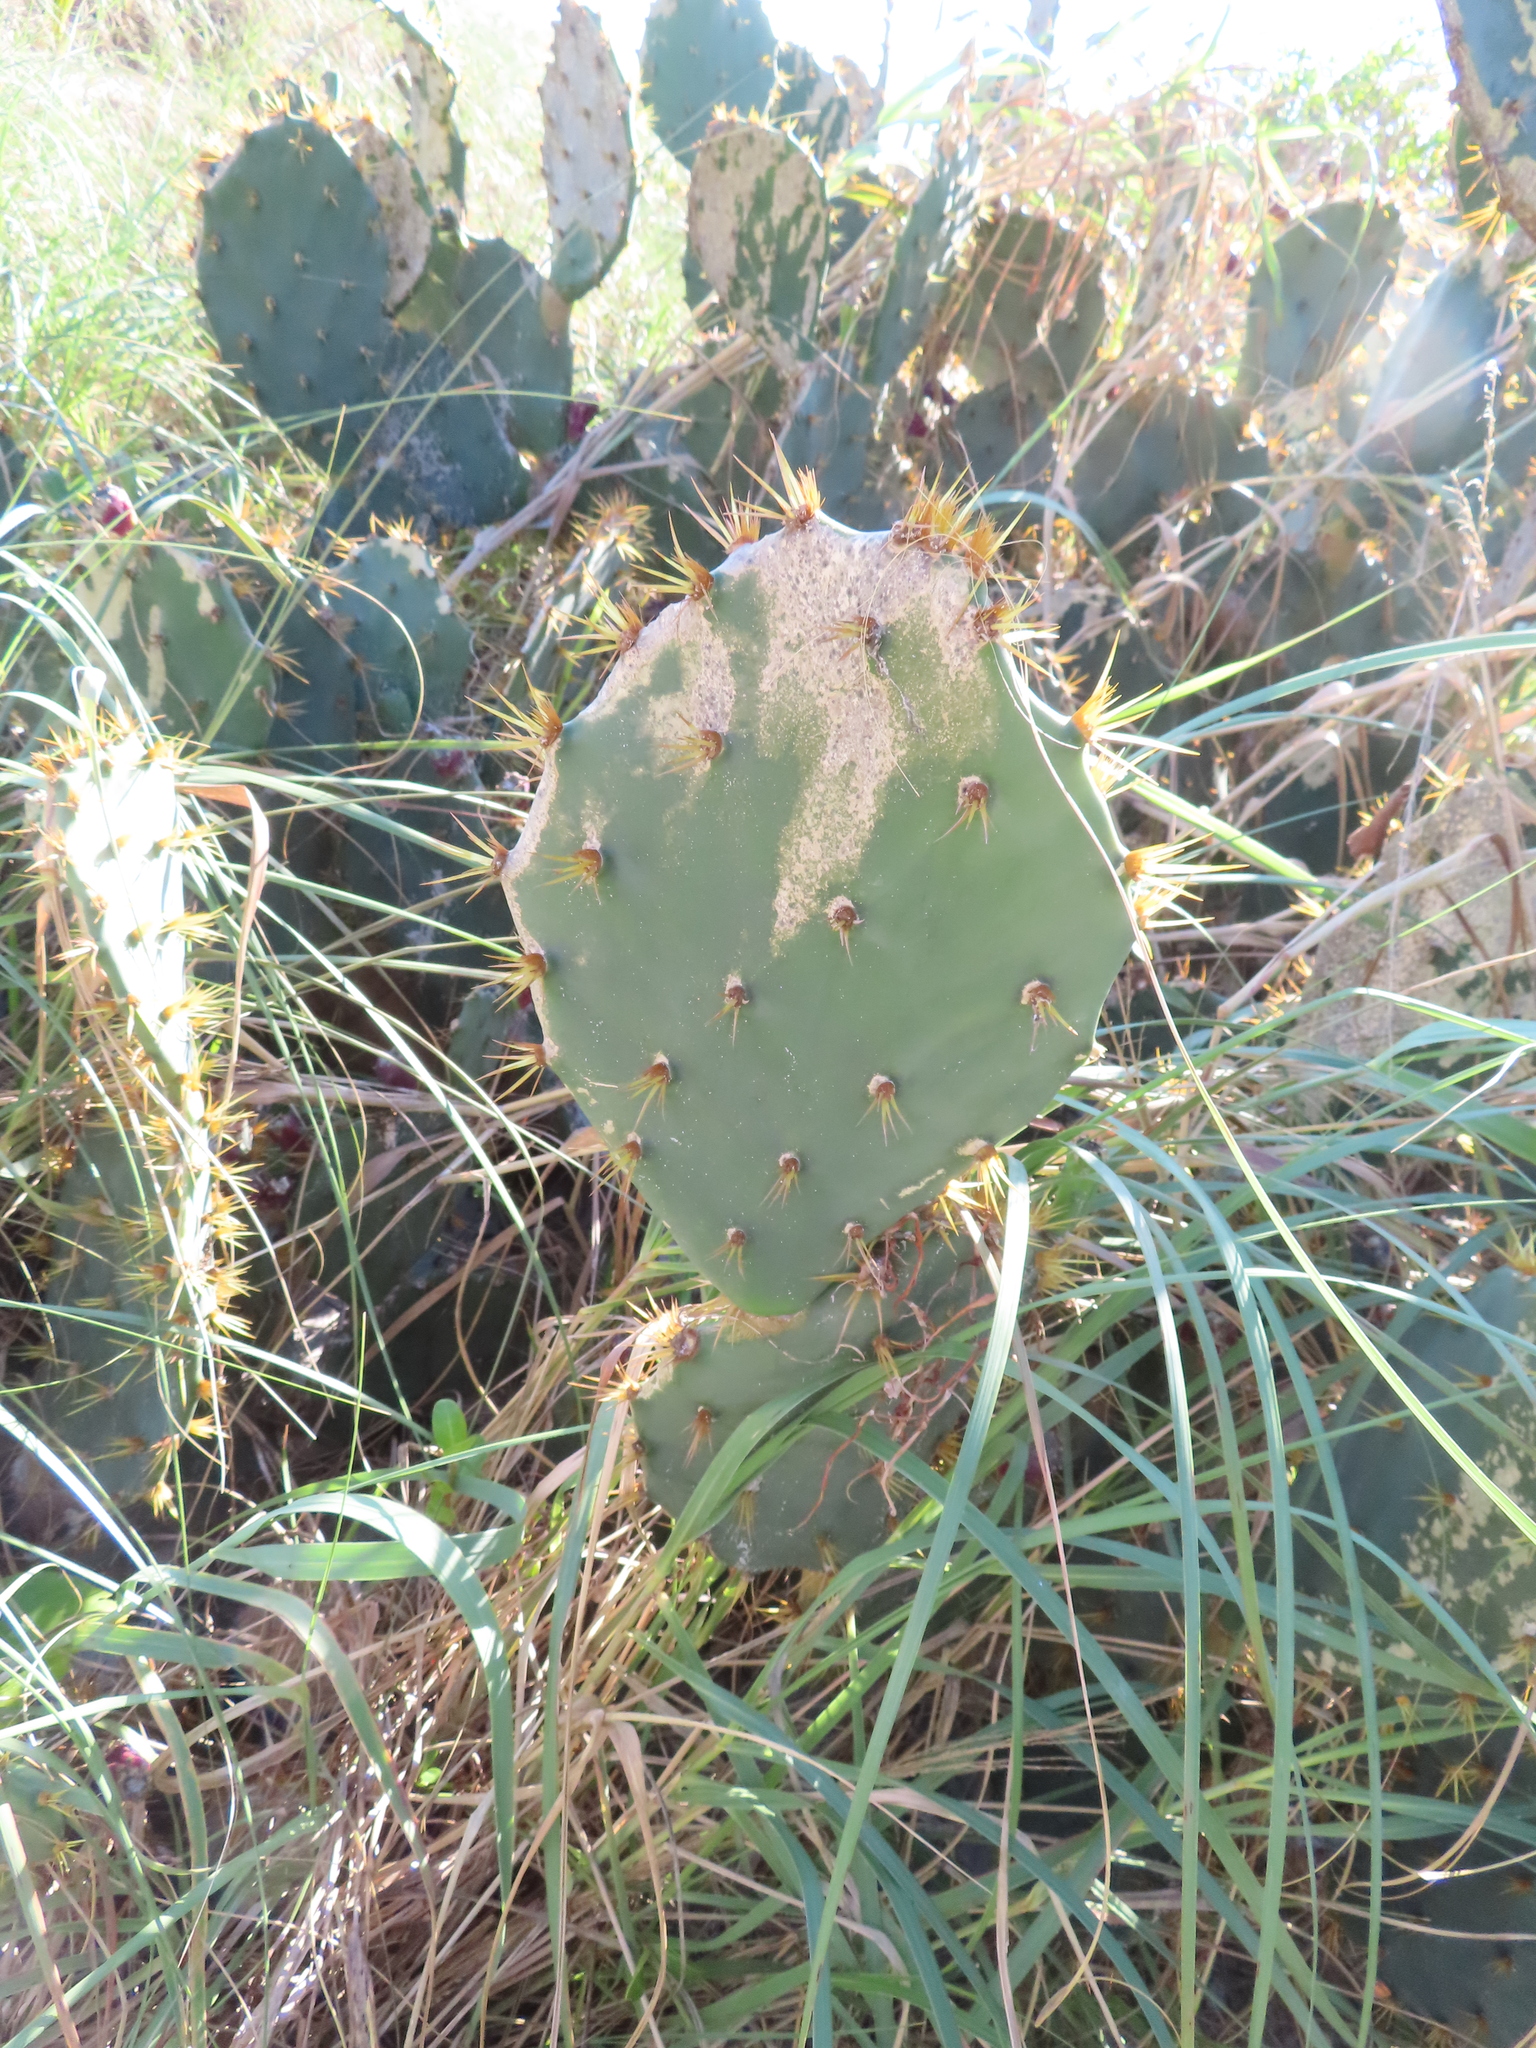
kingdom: Plantae
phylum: Tracheophyta
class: Magnoliopsida
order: Caryophyllales
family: Cactaceae
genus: Opuntia
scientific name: Opuntia dillenii
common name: Sour prickle
